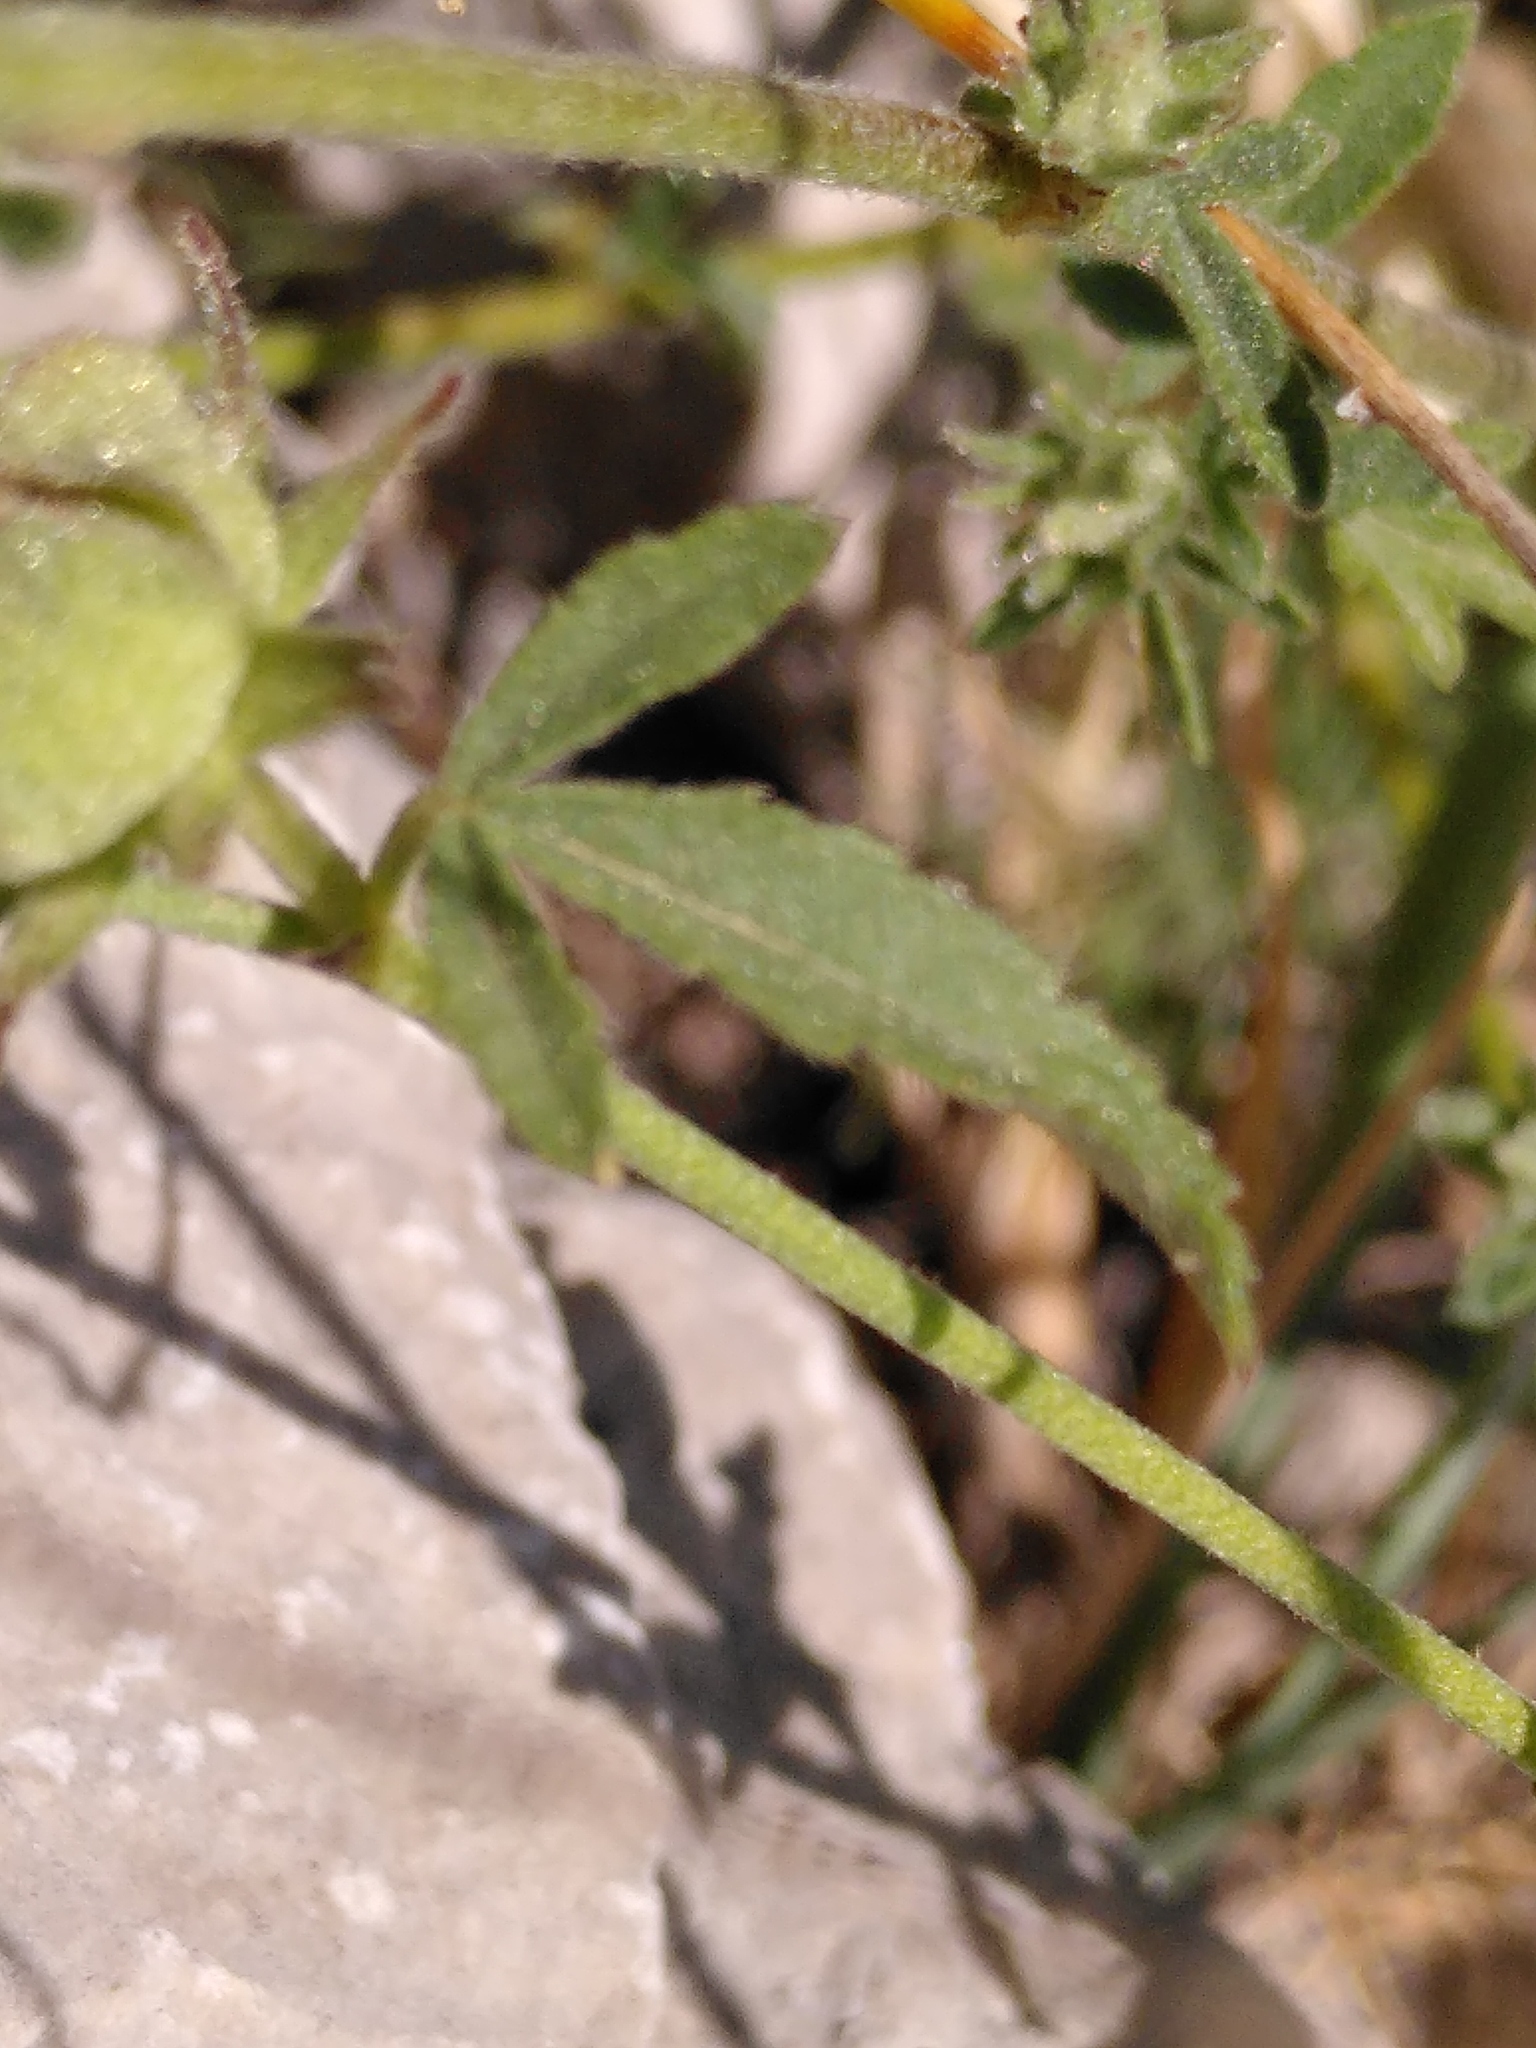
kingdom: Plantae
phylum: Tracheophyta
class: Magnoliopsida
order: Malvales
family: Malvaceae
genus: Althaea
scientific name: Althaea cannabina
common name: Palm-leaf marshmallow
